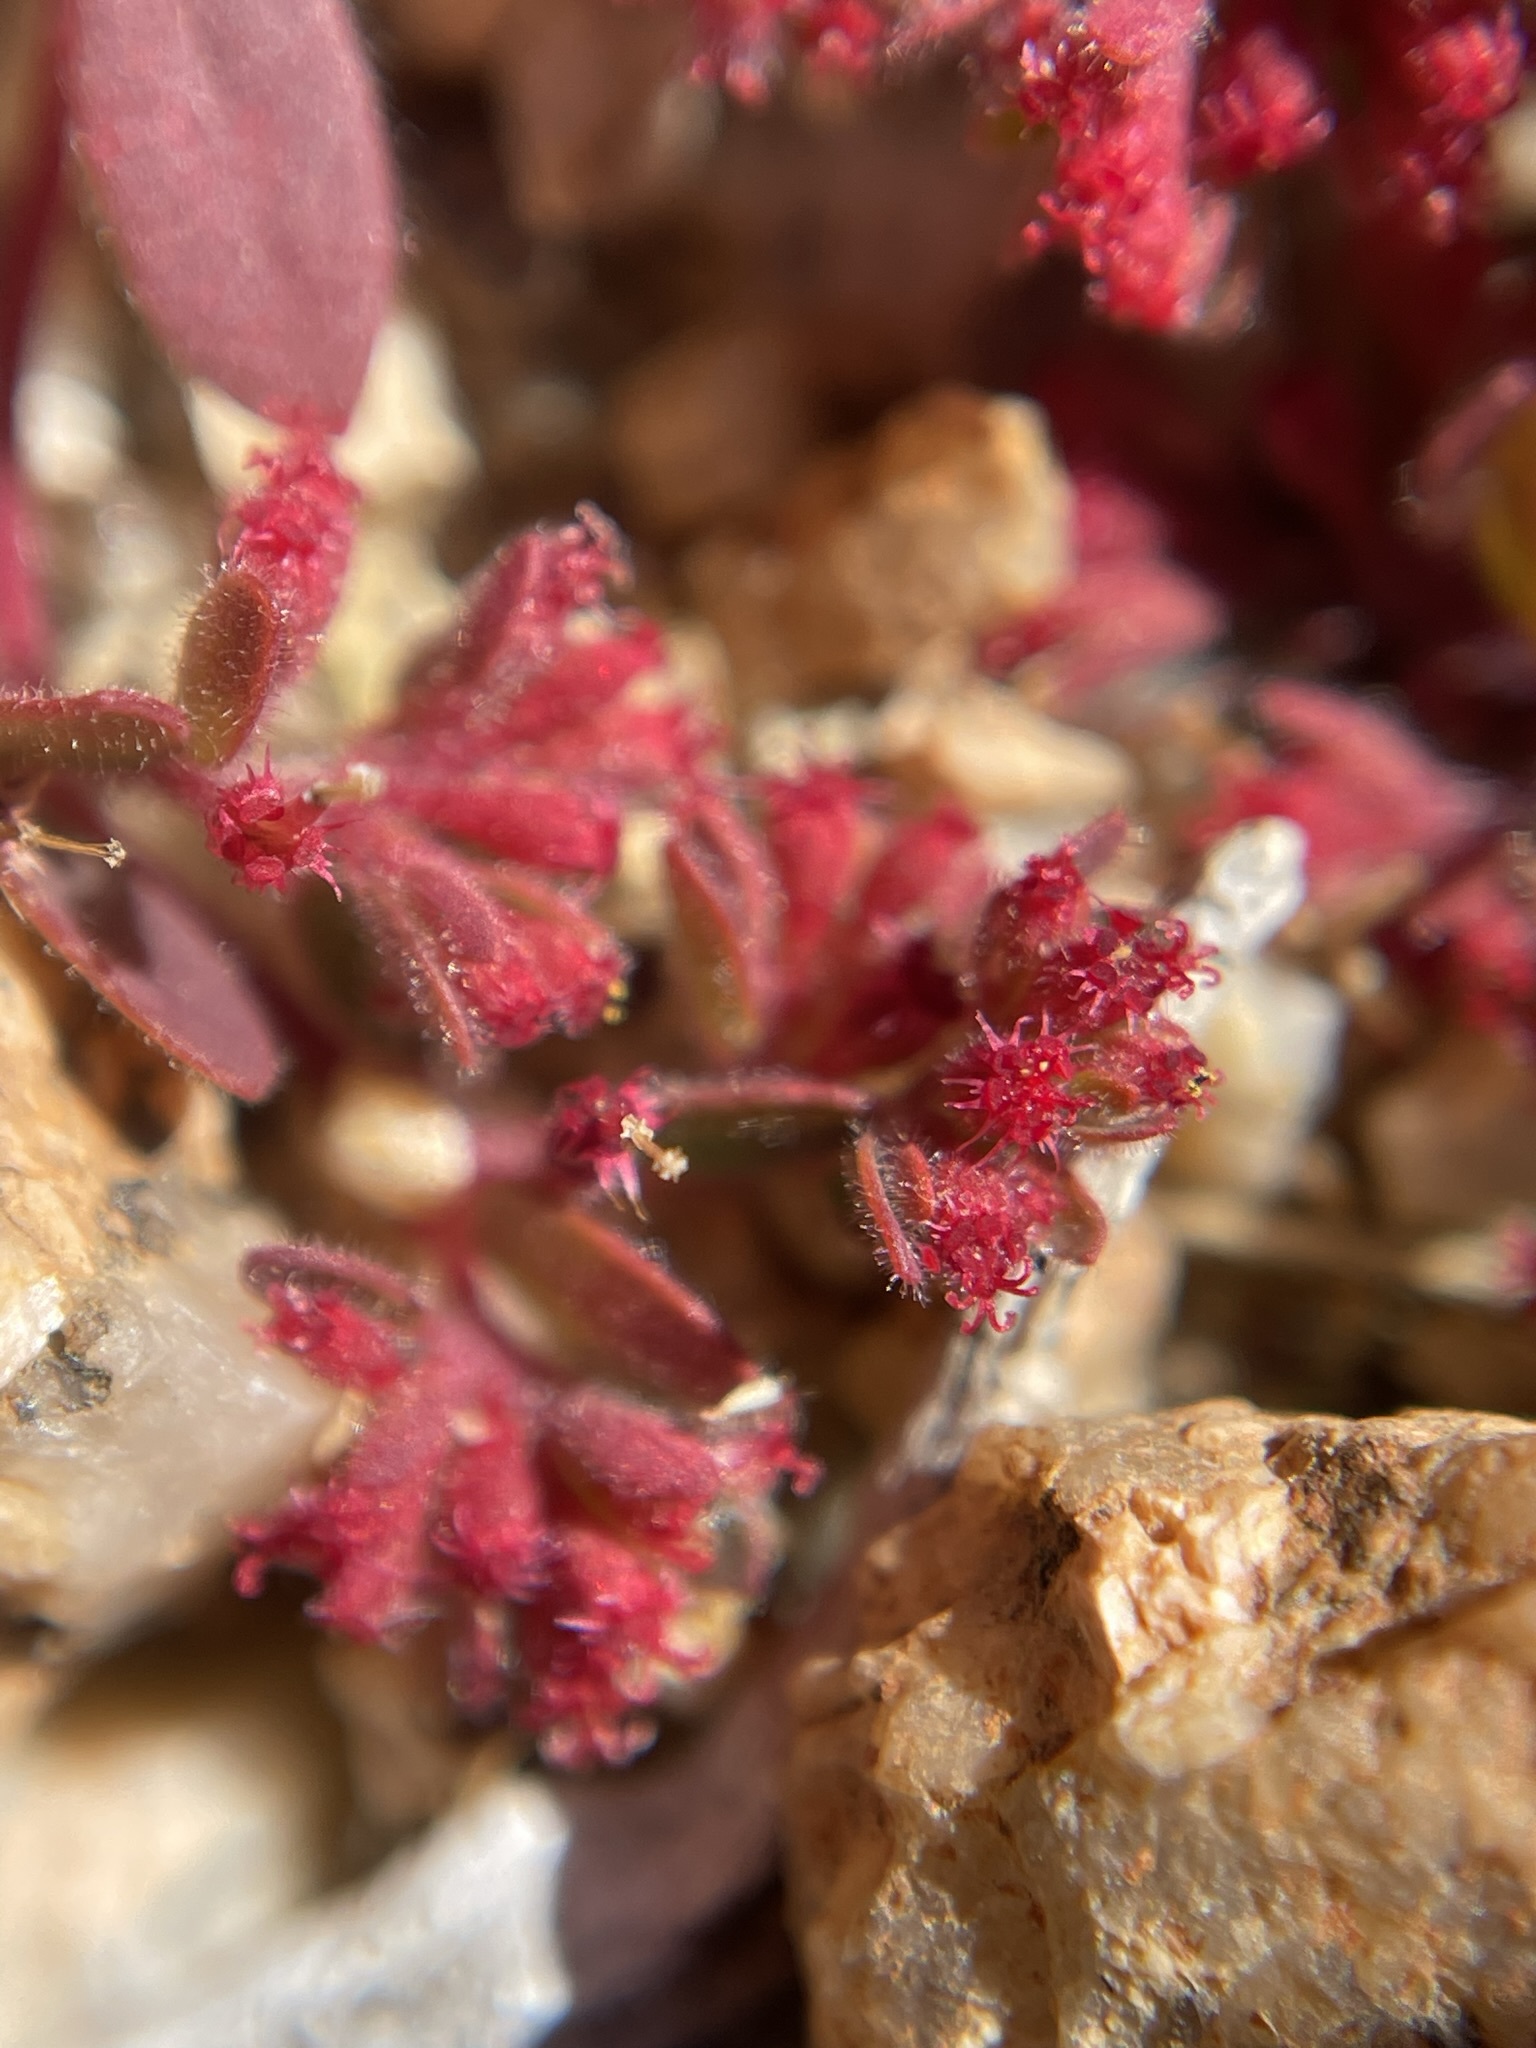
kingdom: Plantae
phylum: Tracheophyta
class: Magnoliopsida
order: Malpighiales
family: Euphorbiaceae
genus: Euphorbia
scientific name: Euphorbia setiloba
